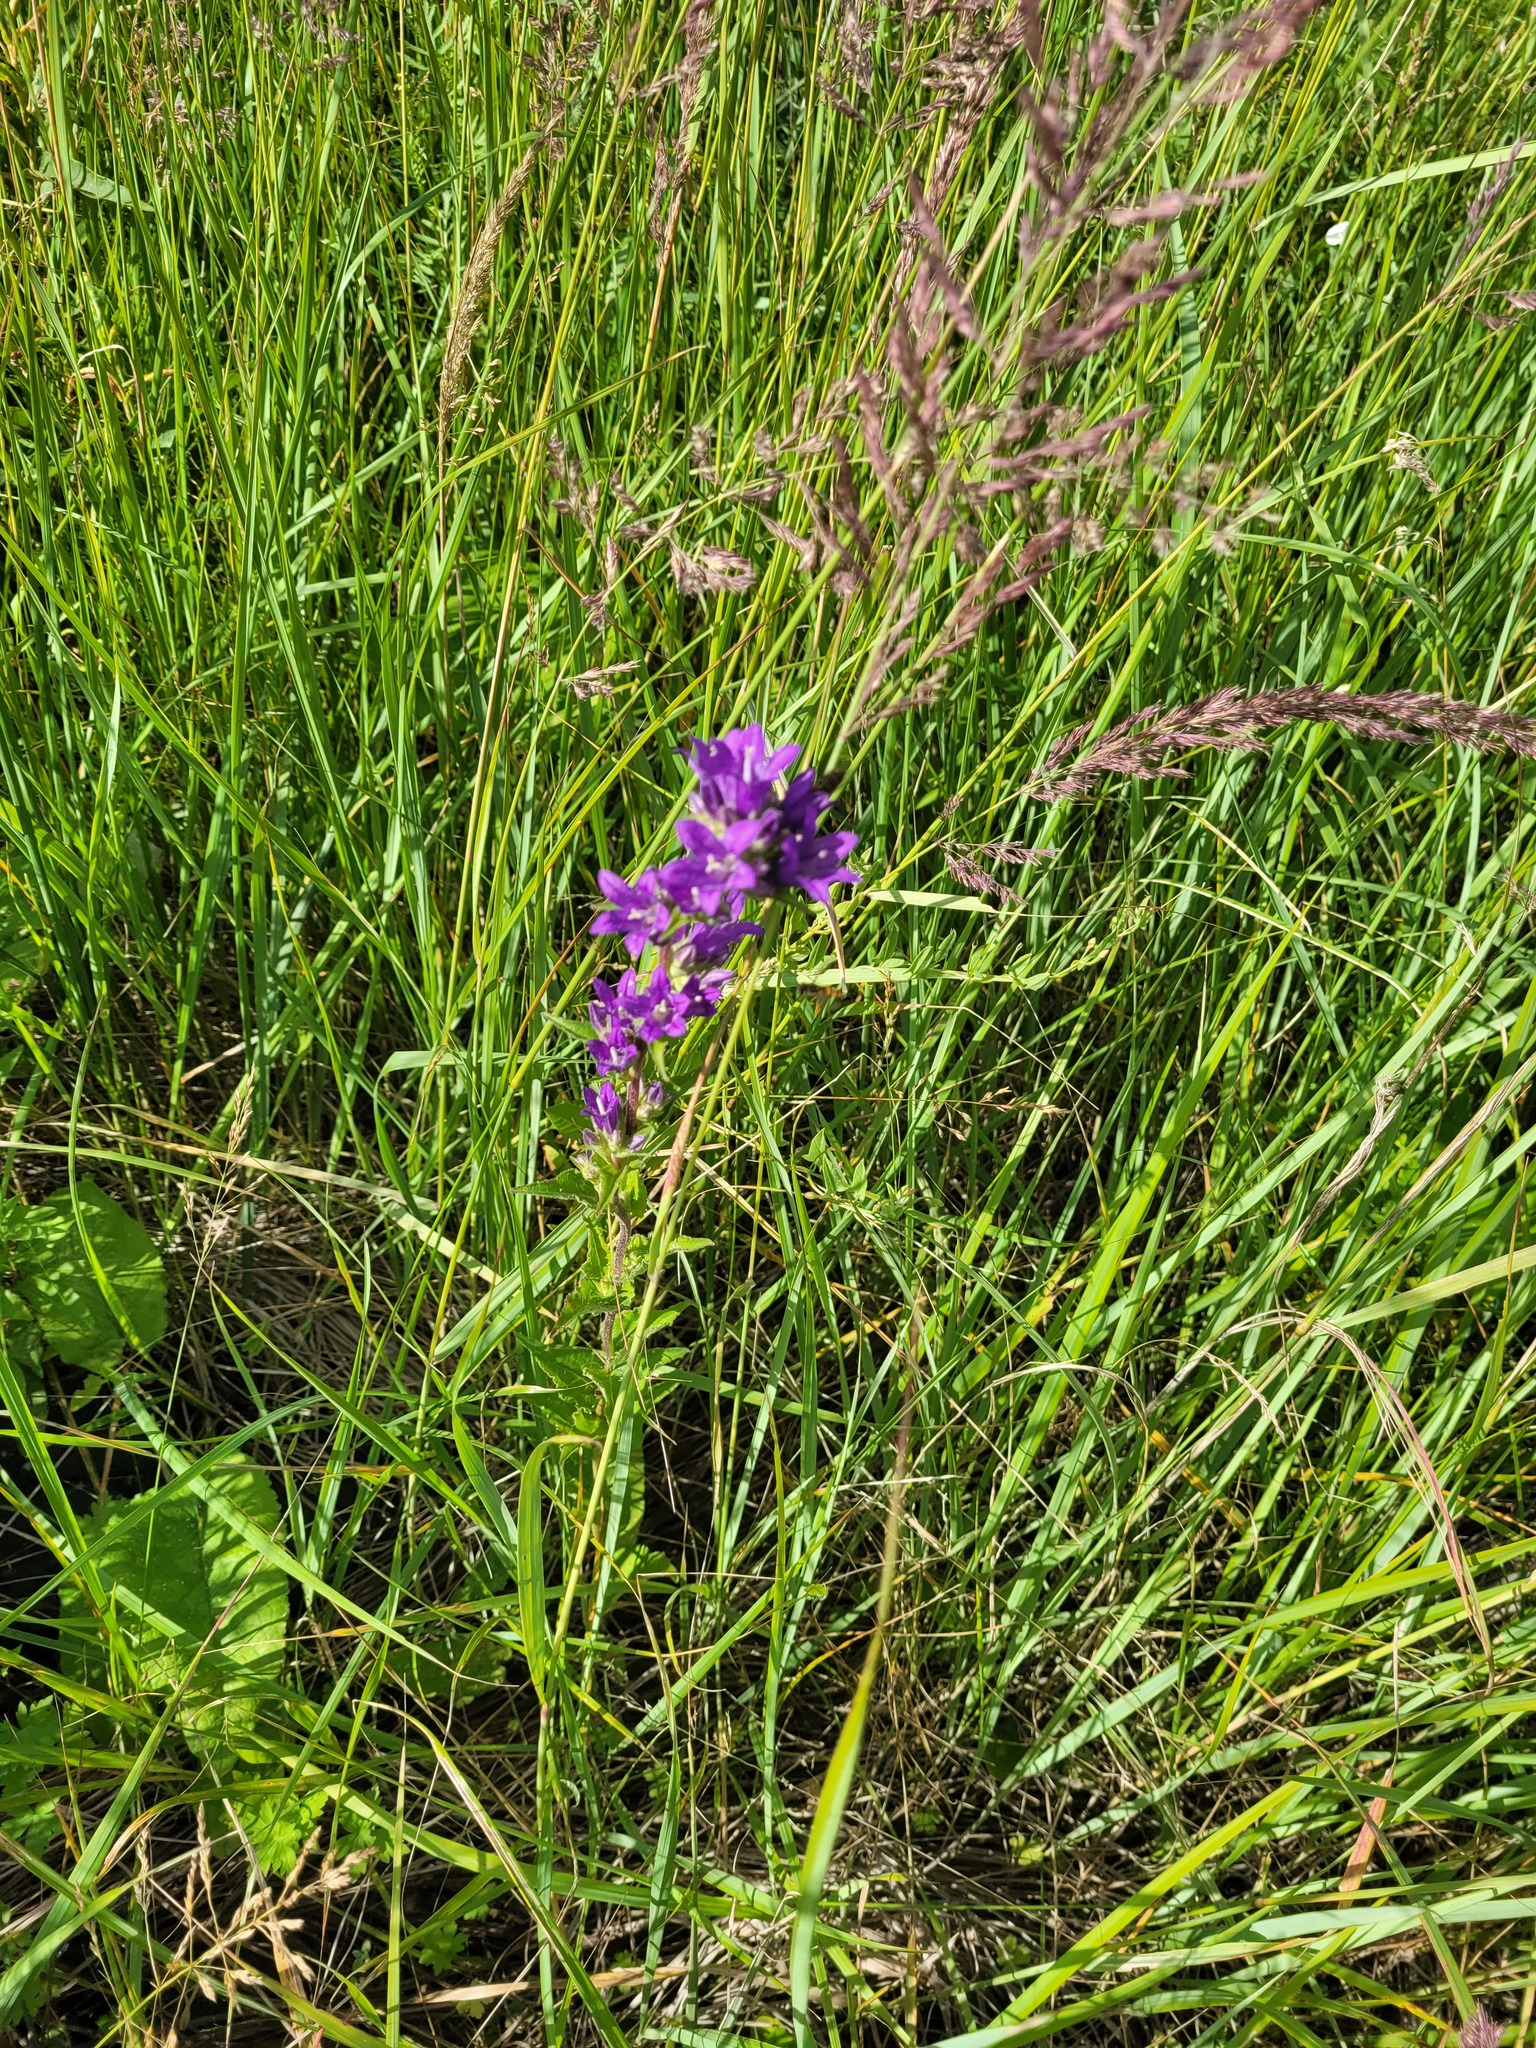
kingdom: Plantae
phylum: Tracheophyta
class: Magnoliopsida
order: Asterales
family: Campanulaceae
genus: Campanula
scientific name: Campanula glomerata
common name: Clustered bellflower
